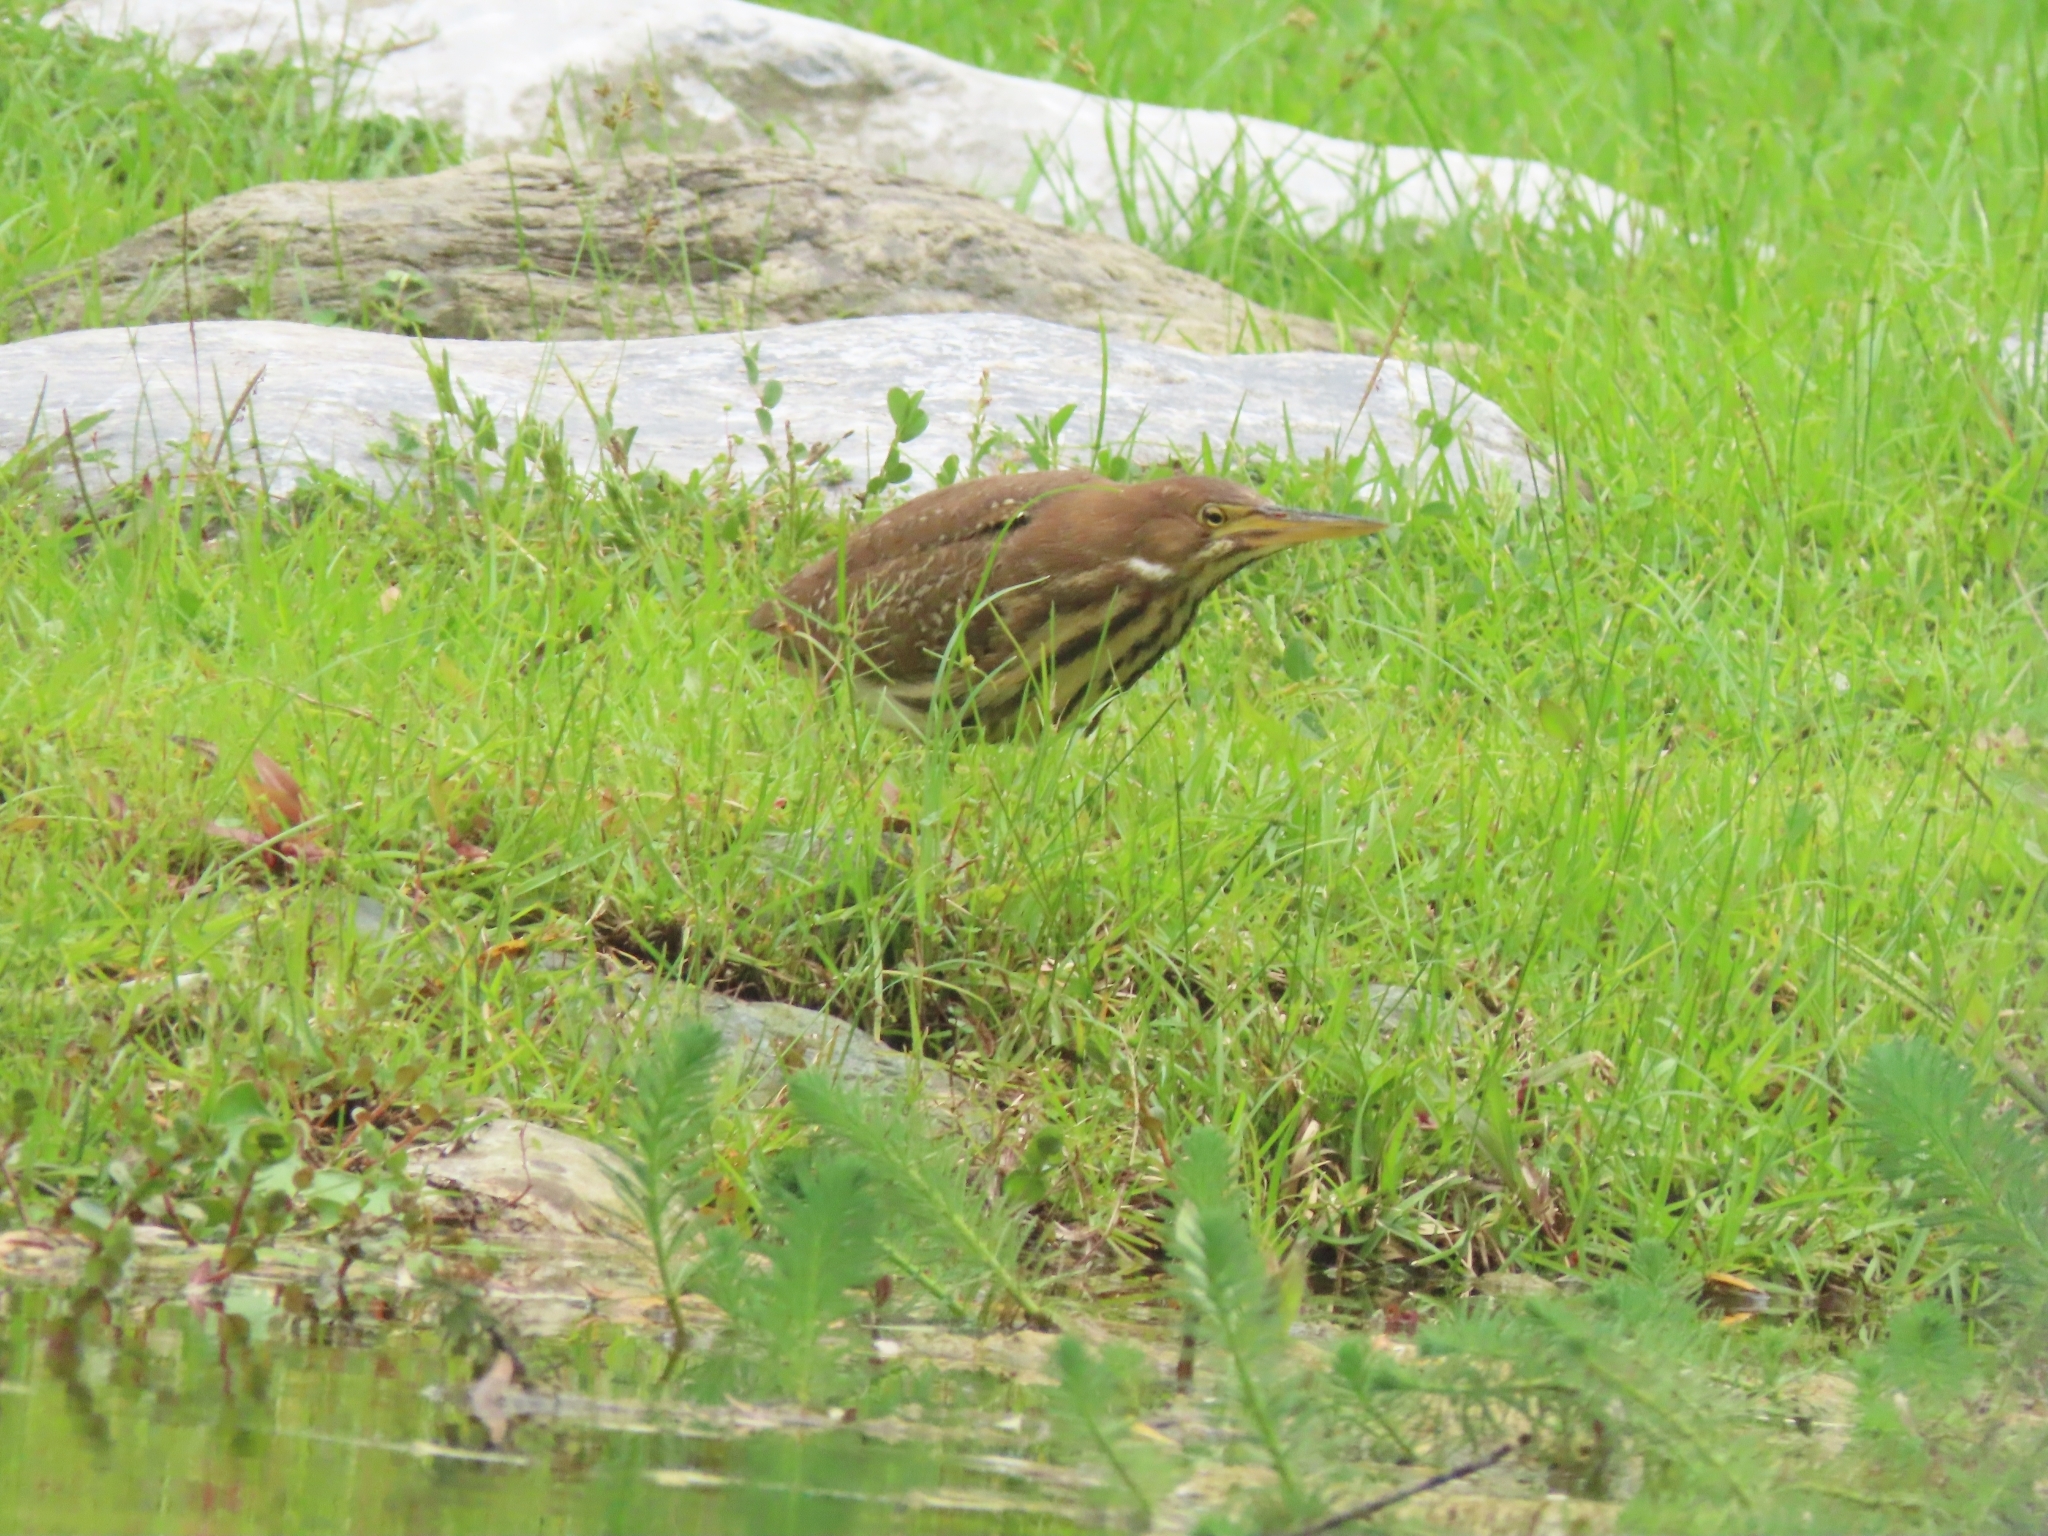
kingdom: Animalia
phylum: Chordata
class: Aves
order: Pelecaniformes
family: Ardeidae
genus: Ixobrychus
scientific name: Ixobrychus cinnamomeus
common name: Cinnamon bittern
